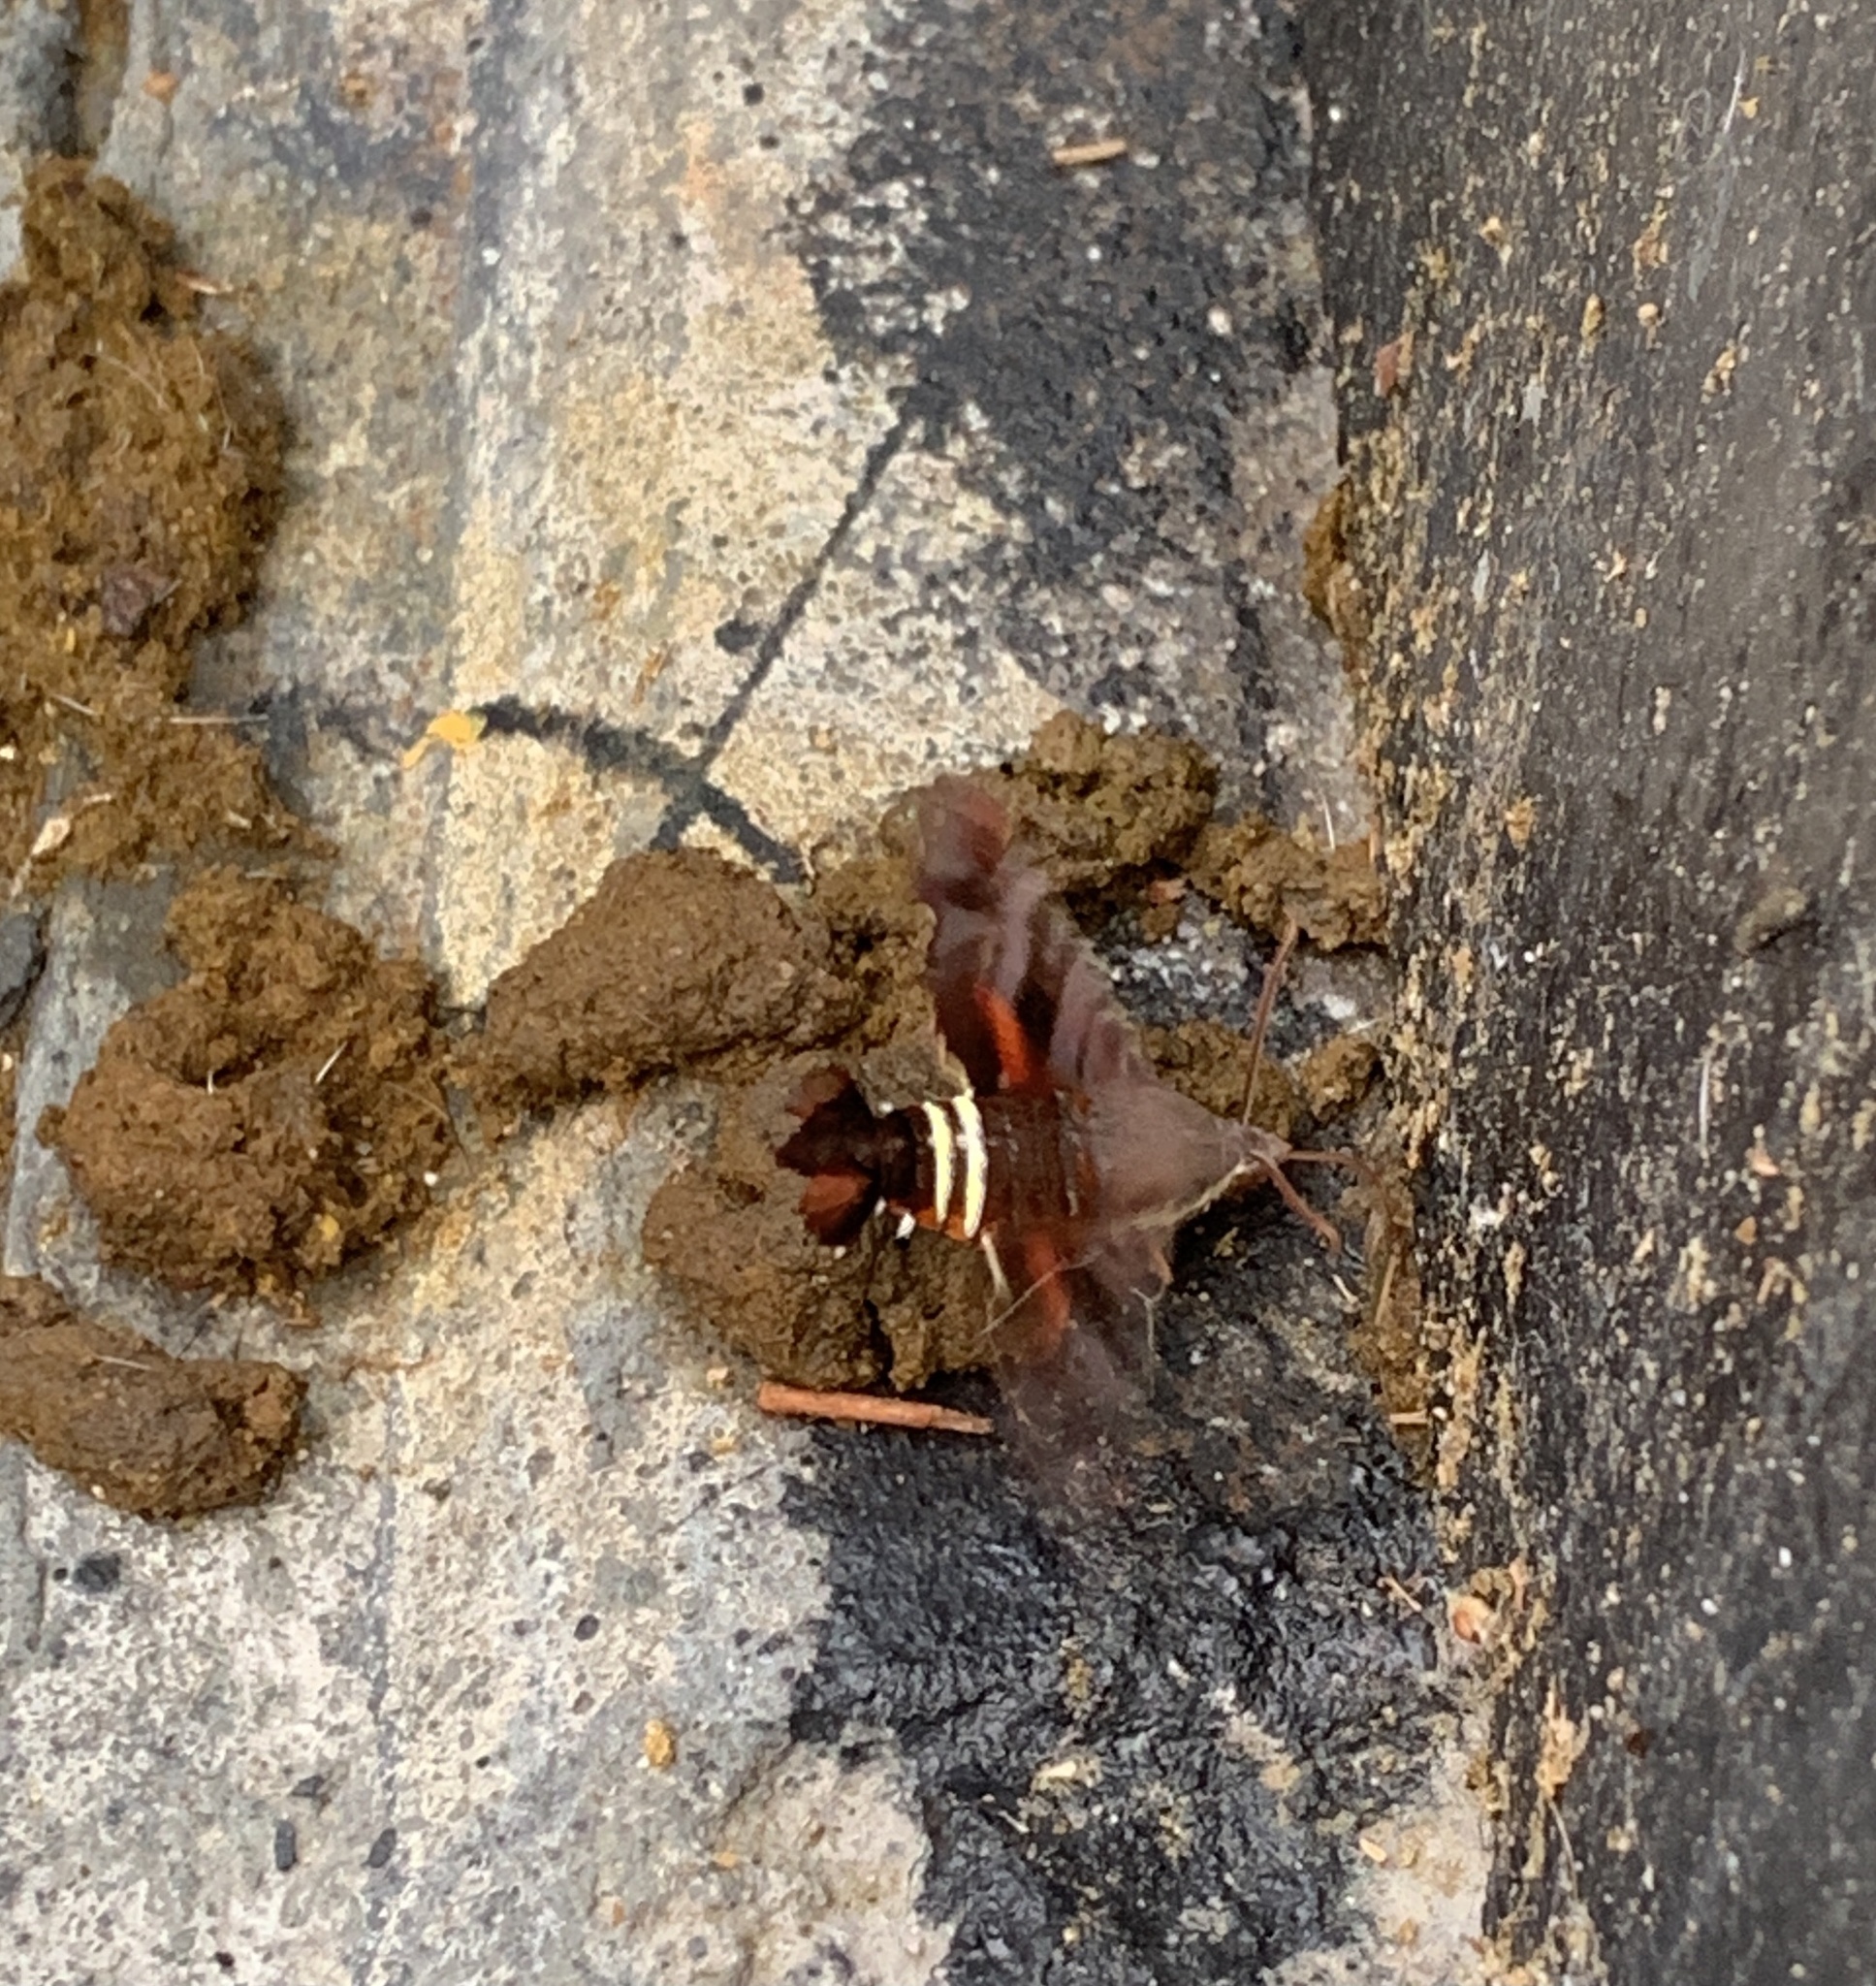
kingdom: Animalia
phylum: Arthropoda
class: Insecta
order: Lepidoptera
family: Sphingidae
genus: Amphion
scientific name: Amphion floridensis
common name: Nessus sphinx
